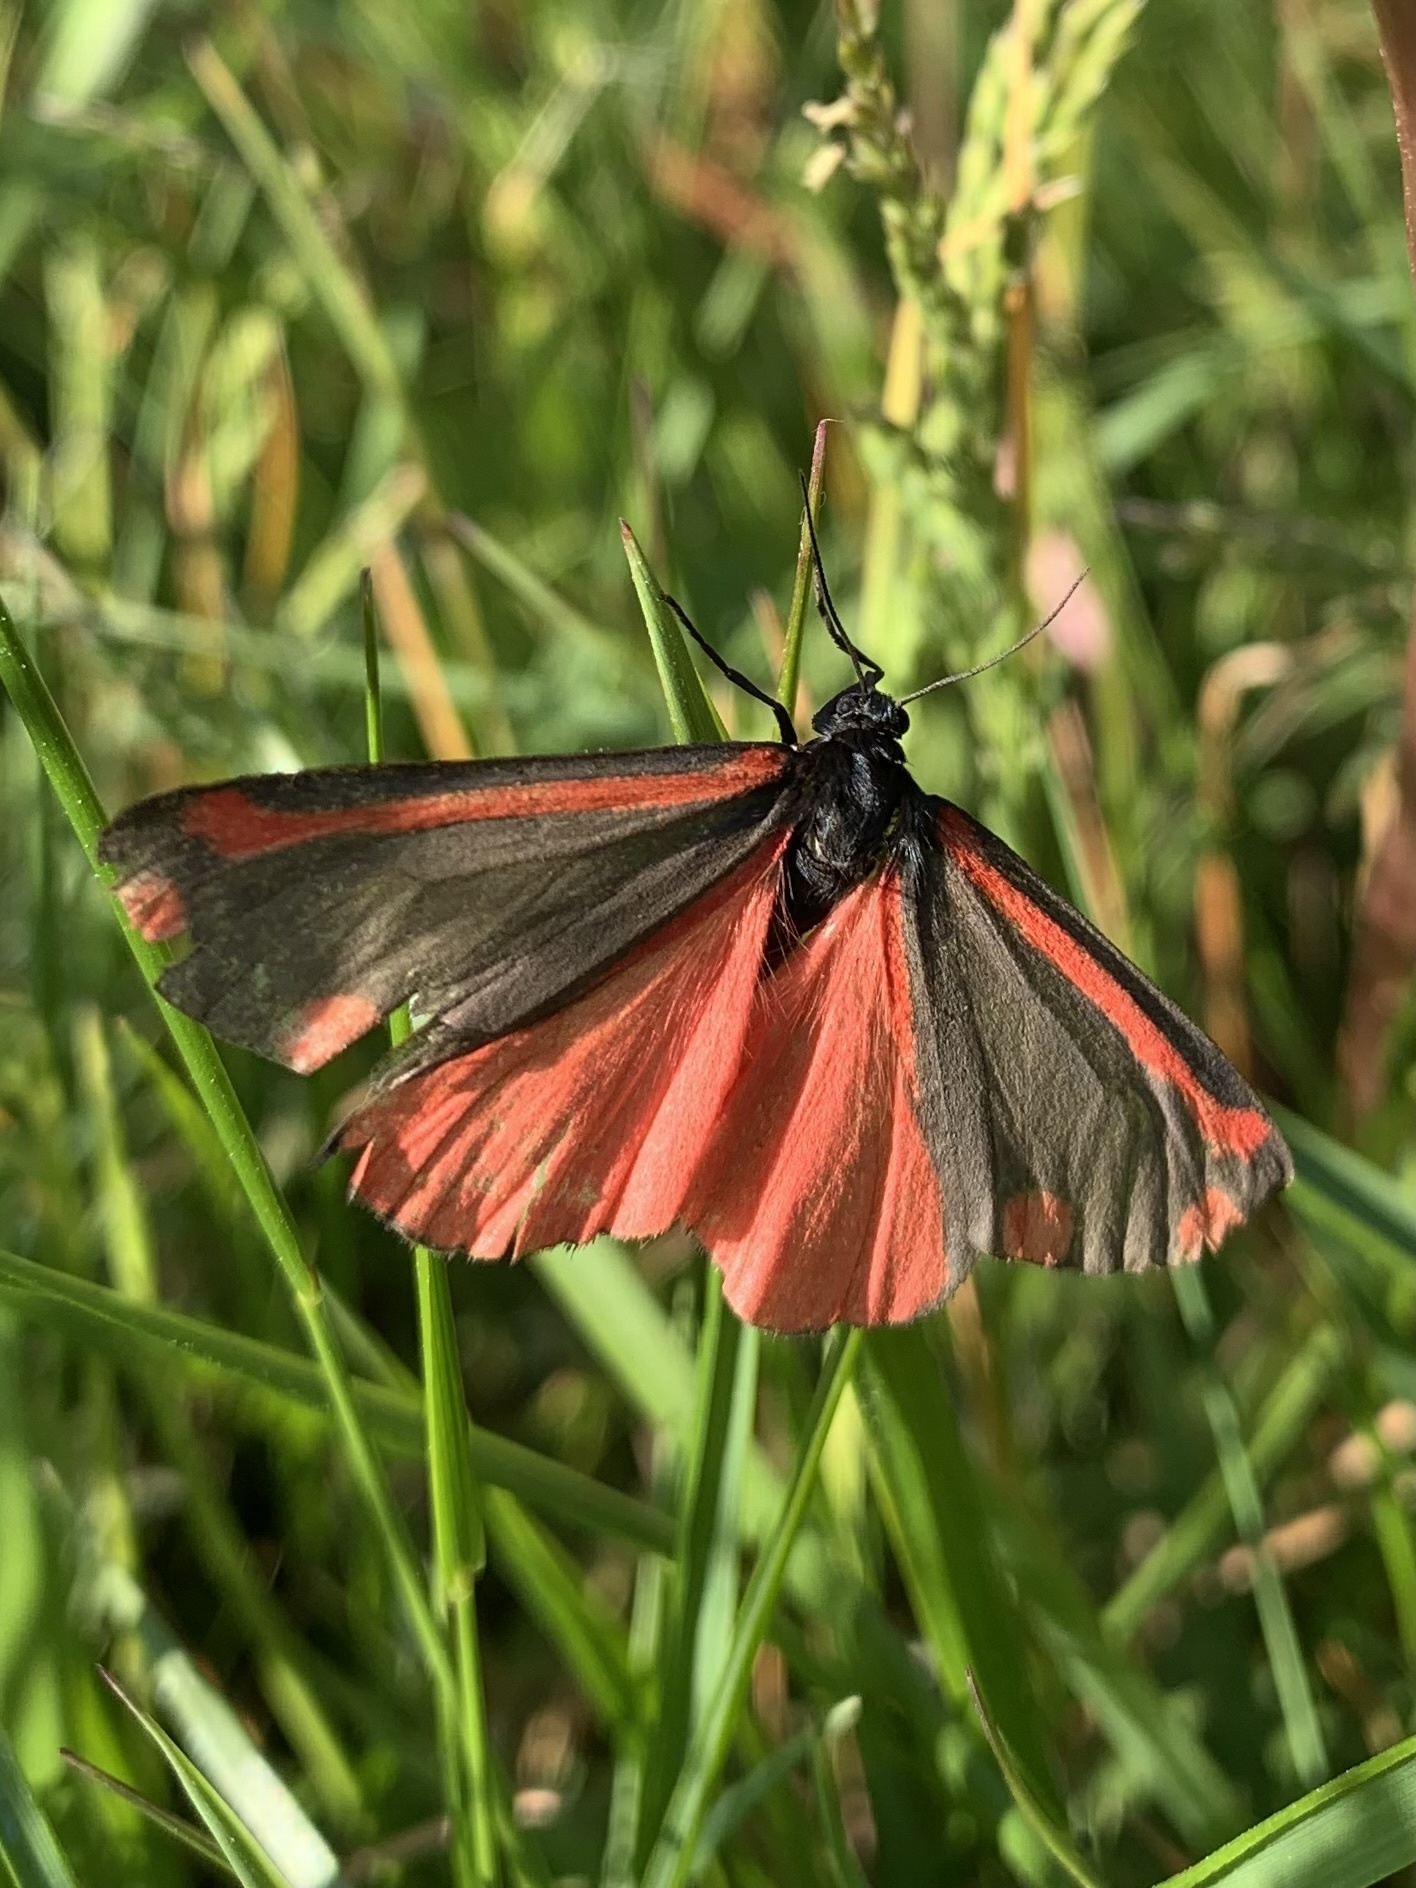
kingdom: Animalia
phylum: Arthropoda
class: Insecta
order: Lepidoptera
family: Erebidae
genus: Tyria
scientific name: Tyria jacobaeae
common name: Cinnabar
